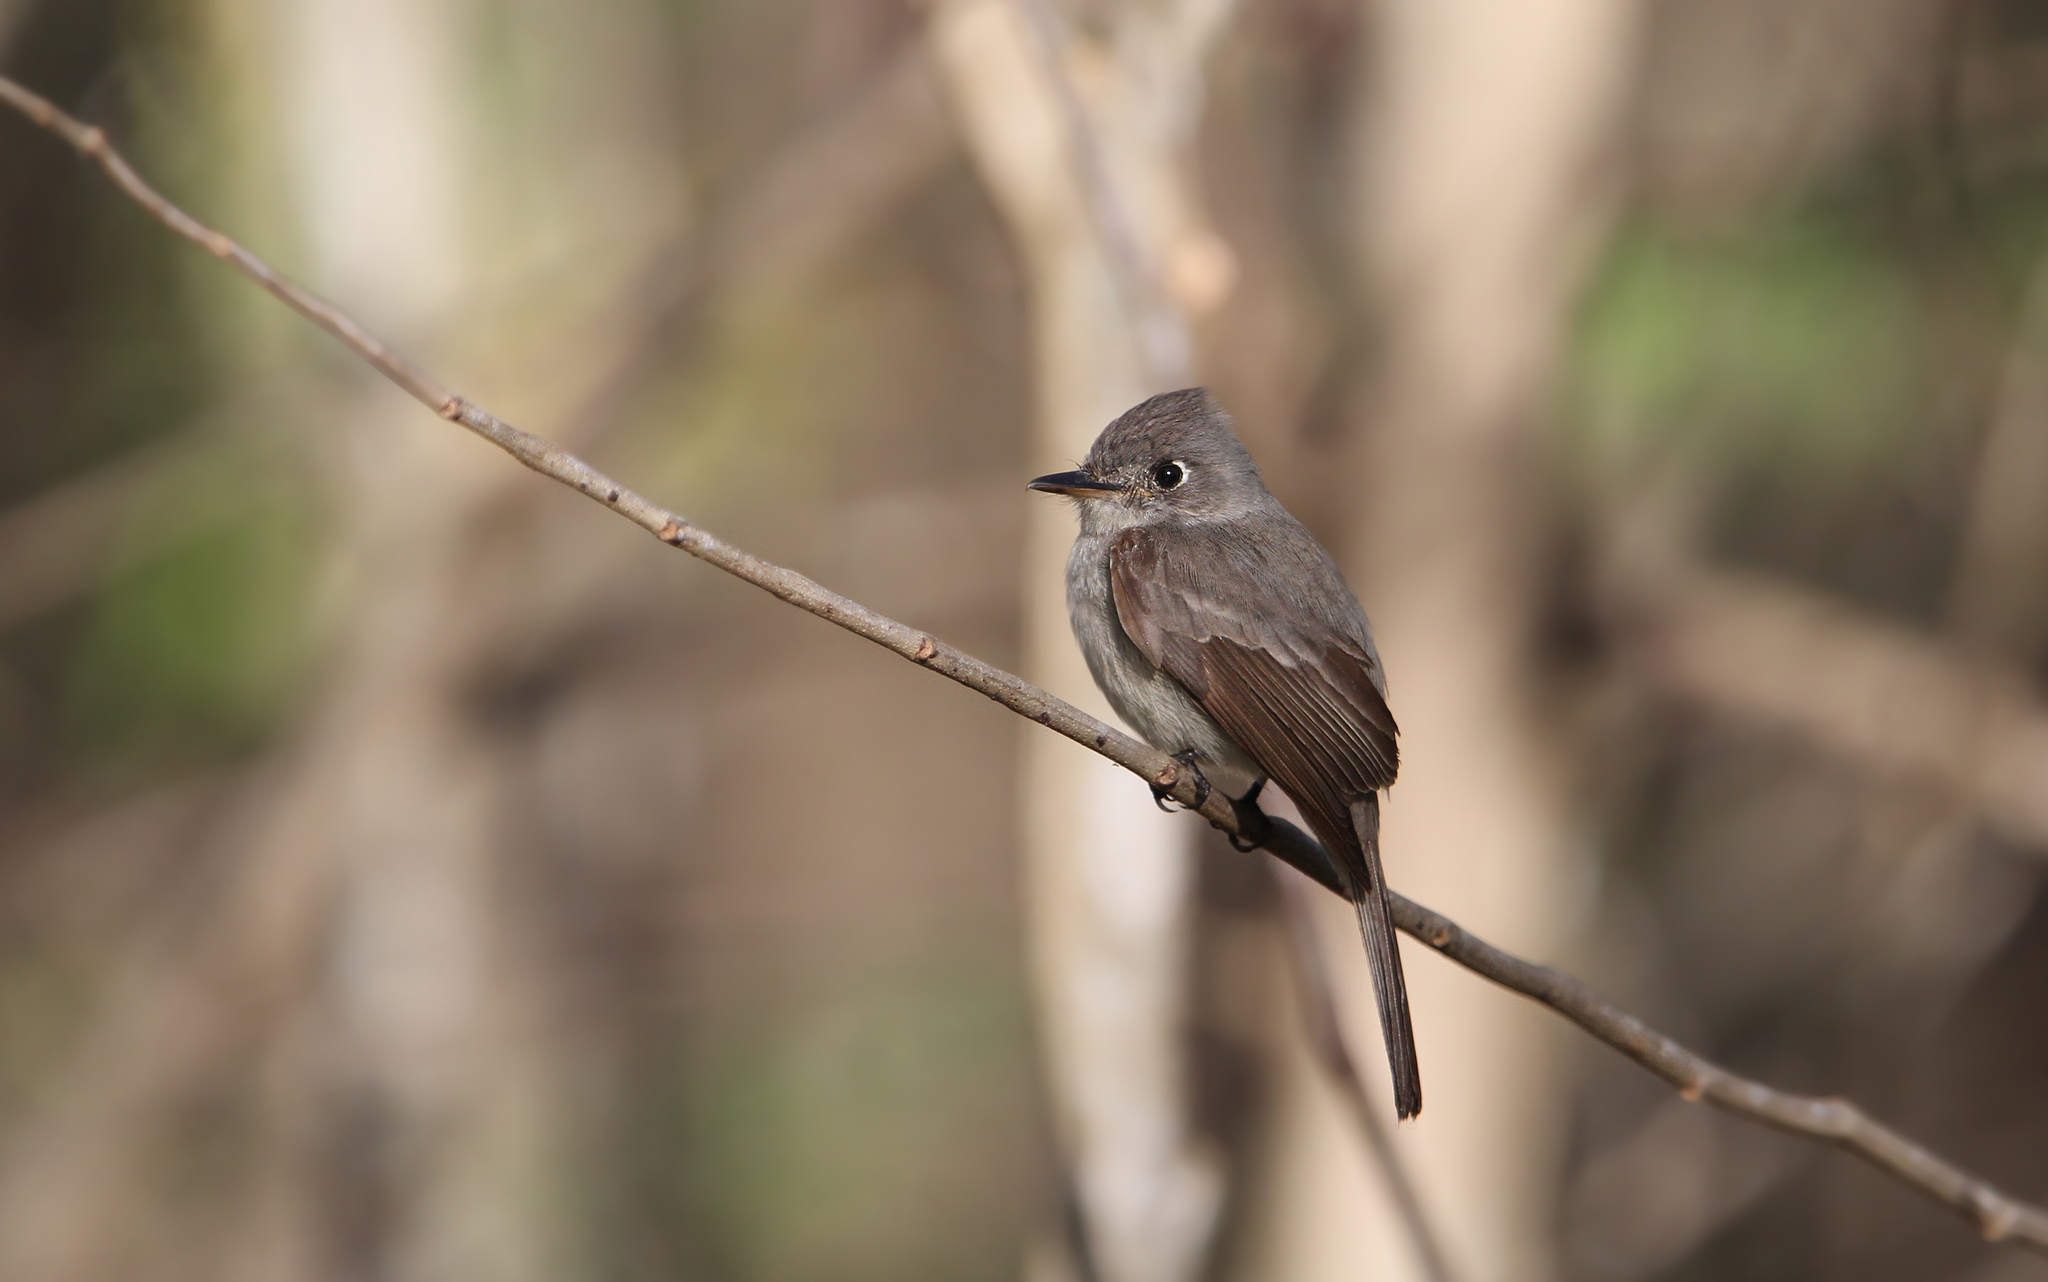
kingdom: Animalia
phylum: Chordata
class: Aves
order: Passeriformes
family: Tyrannidae
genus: Contopus
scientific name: Contopus caribaeus
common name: Cuban pewee
